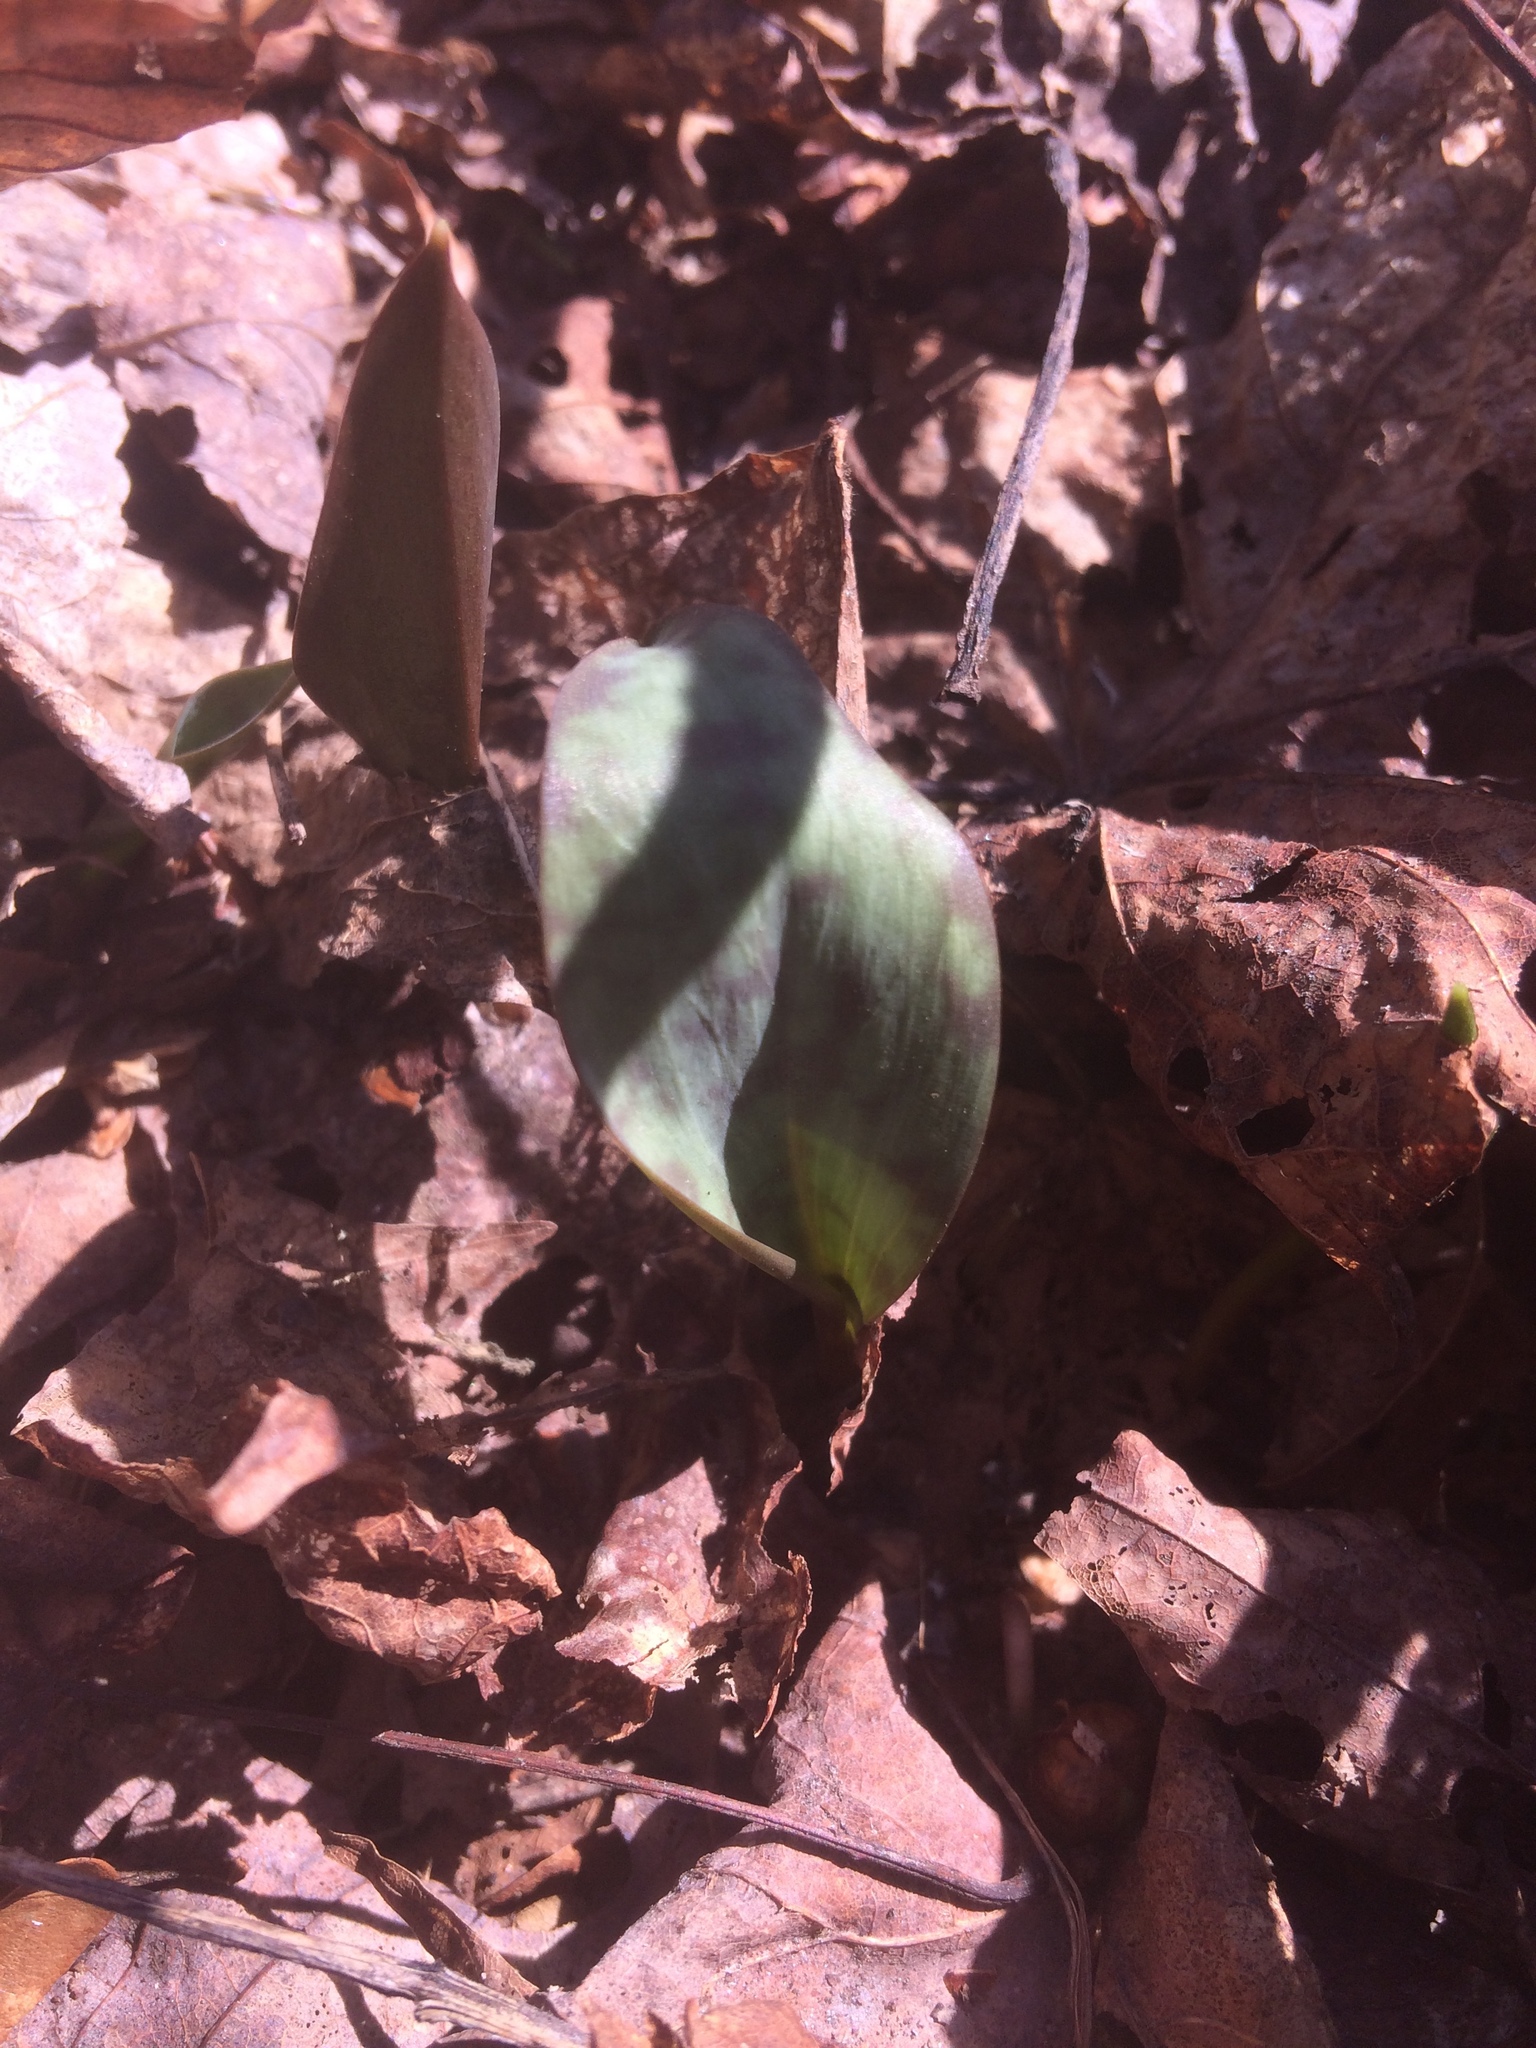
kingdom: Plantae
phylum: Tracheophyta
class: Liliopsida
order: Liliales
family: Liliaceae
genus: Erythronium
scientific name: Erythronium americanum
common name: Yellow adder's-tongue
